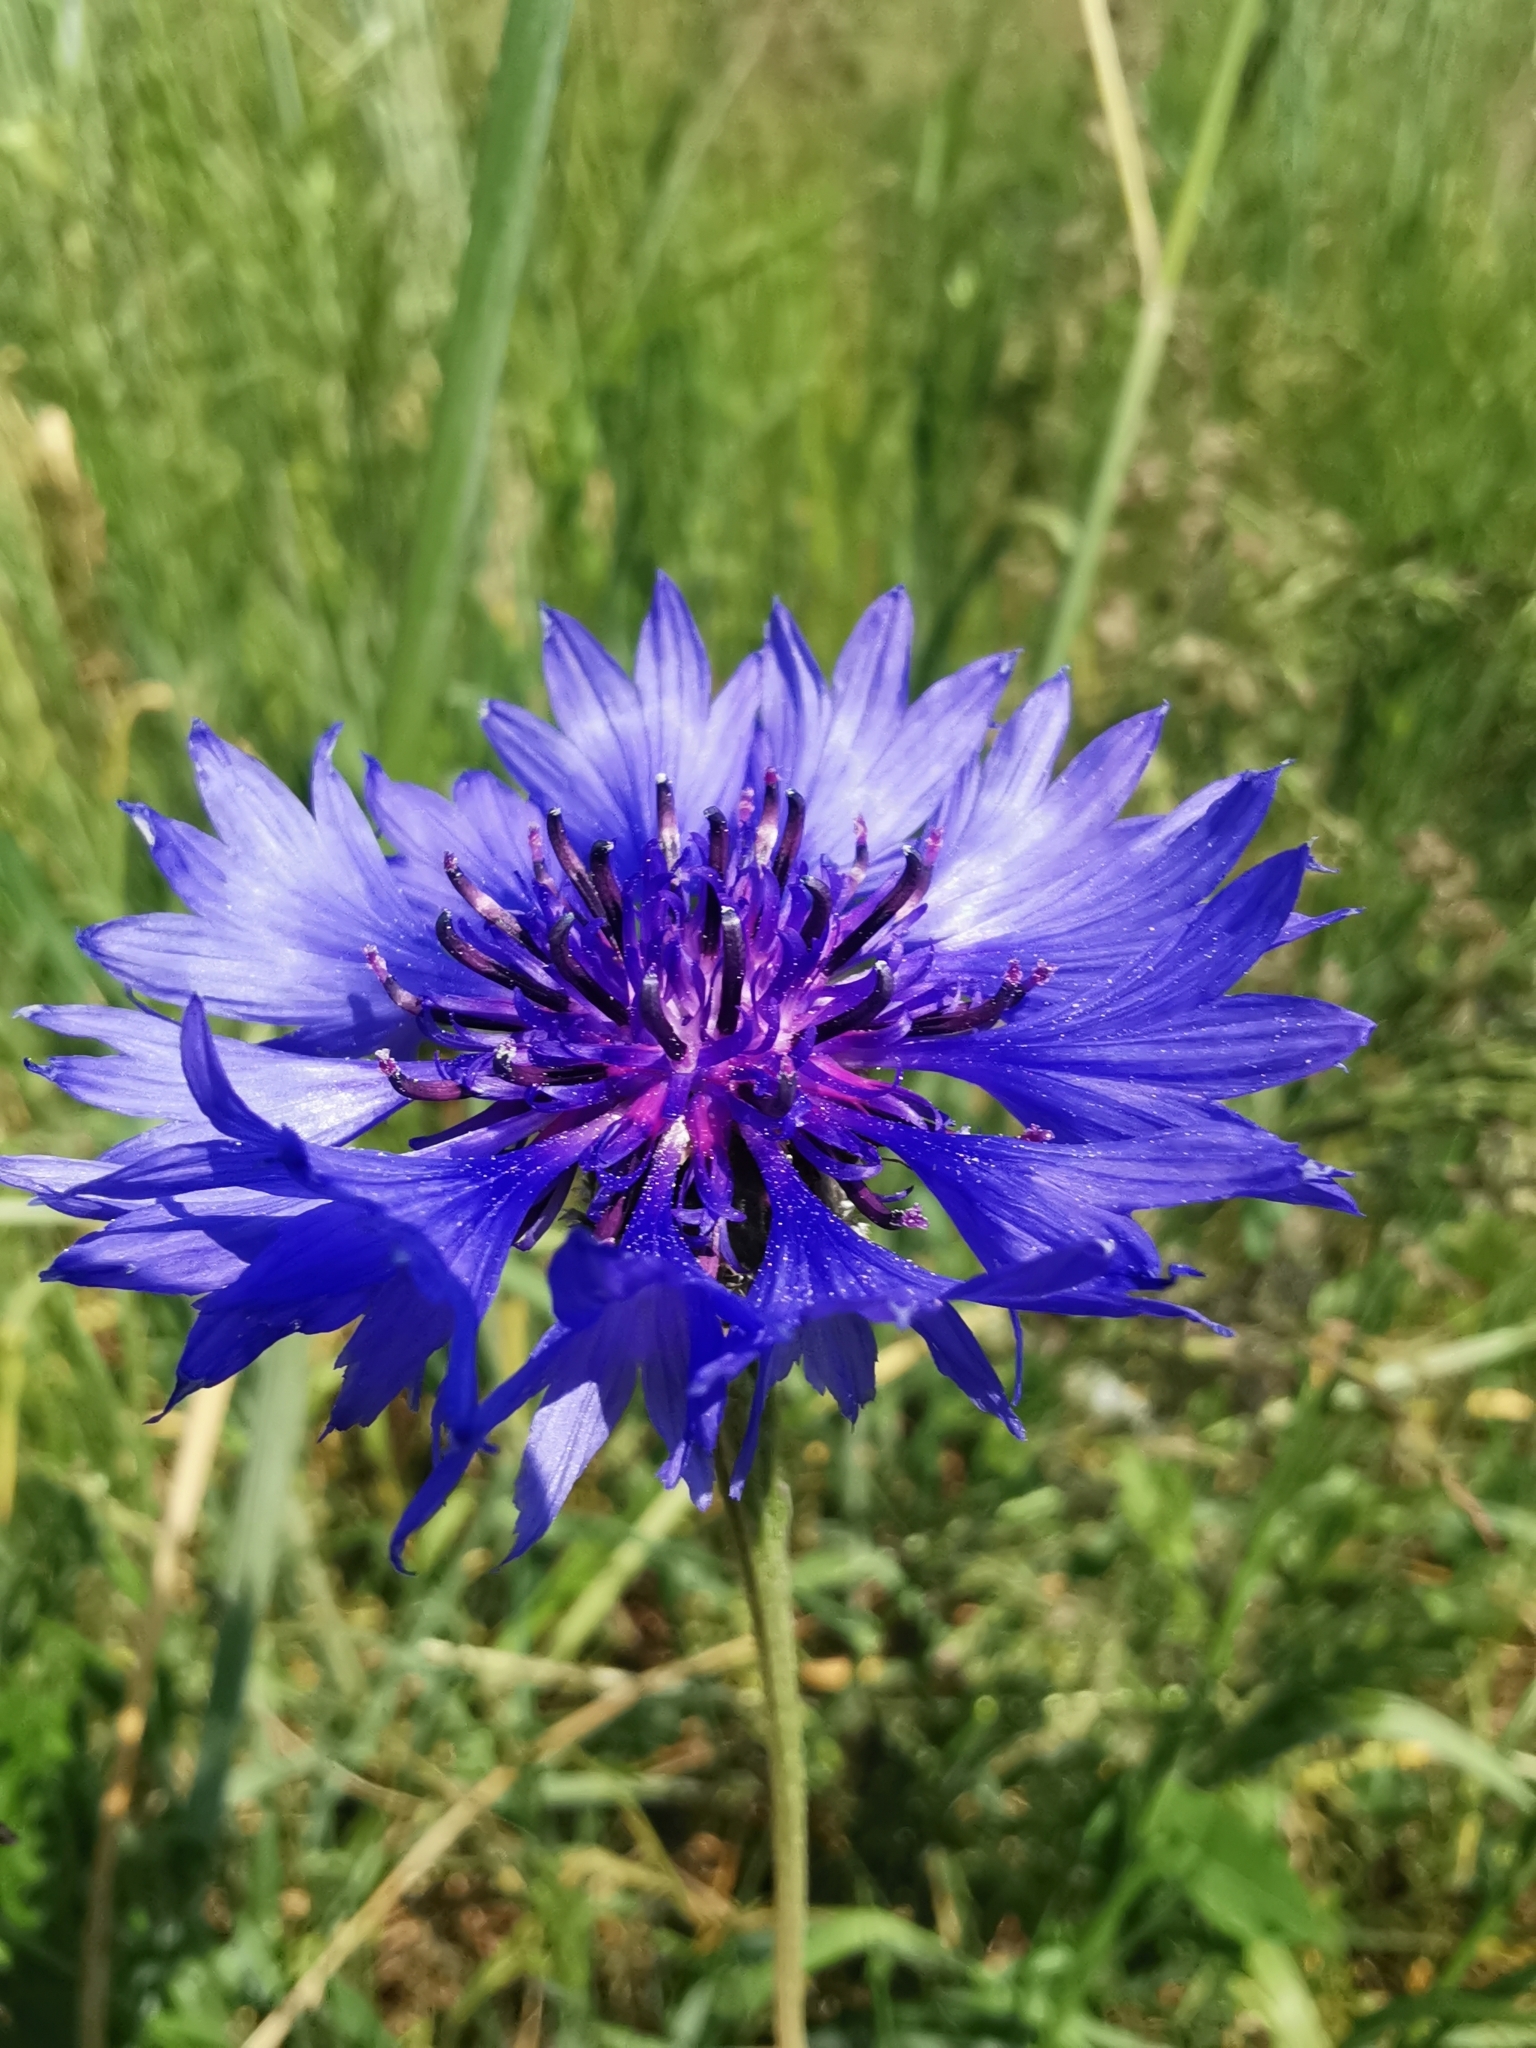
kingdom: Plantae
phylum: Tracheophyta
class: Magnoliopsida
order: Asterales
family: Asteraceae
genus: Centaurea
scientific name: Centaurea cyanus
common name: Cornflower
